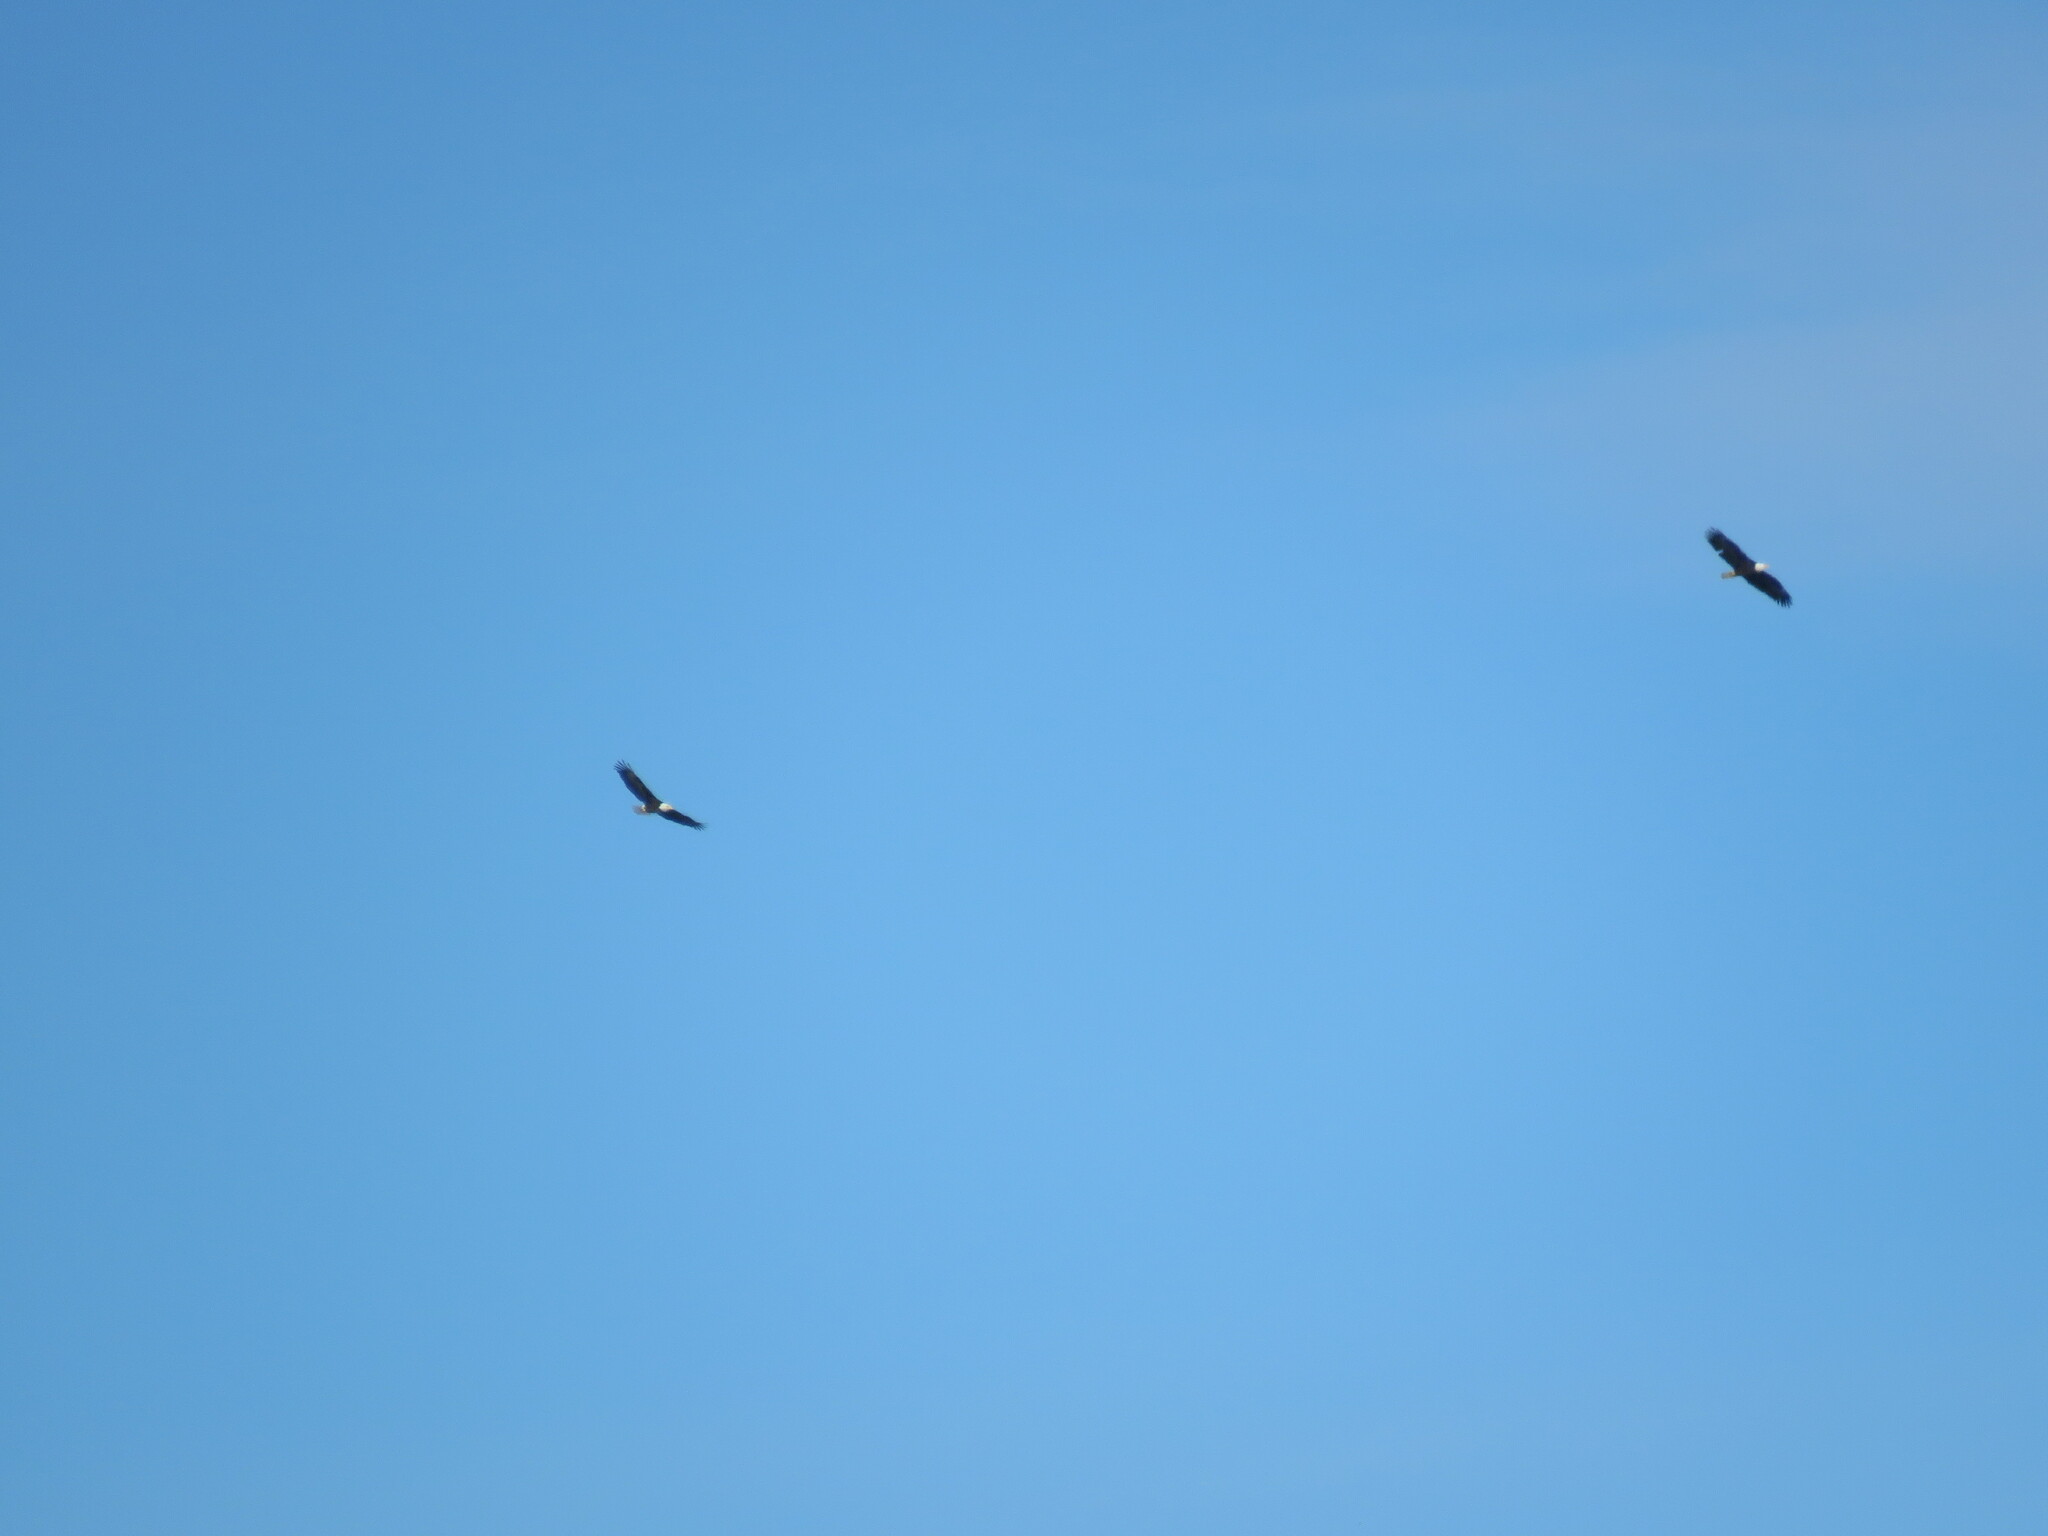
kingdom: Animalia
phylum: Chordata
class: Aves
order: Accipitriformes
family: Accipitridae
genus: Haliaeetus
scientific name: Haliaeetus leucocephalus
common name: Bald eagle
